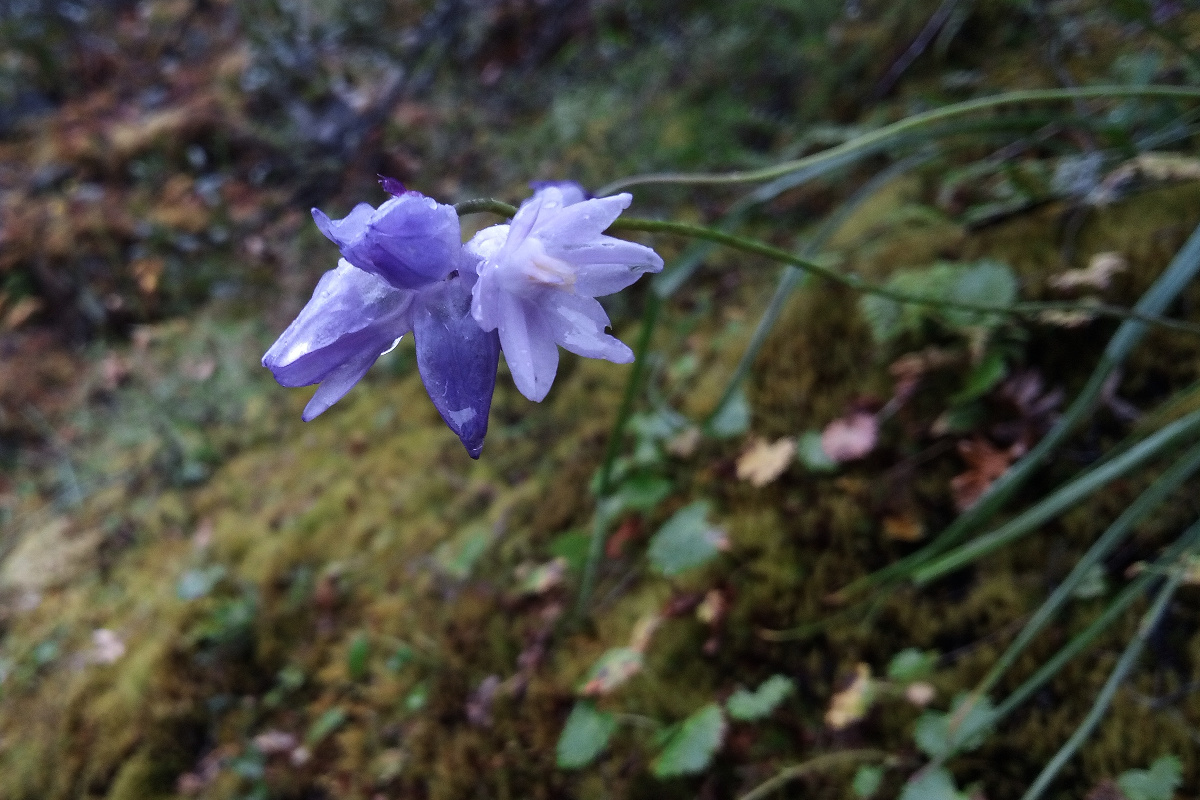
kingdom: Plantae
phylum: Tracheophyta
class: Liliopsida
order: Asparagales
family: Asparagaceae
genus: Dipterostemon
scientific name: Dipterostemon capitatus
